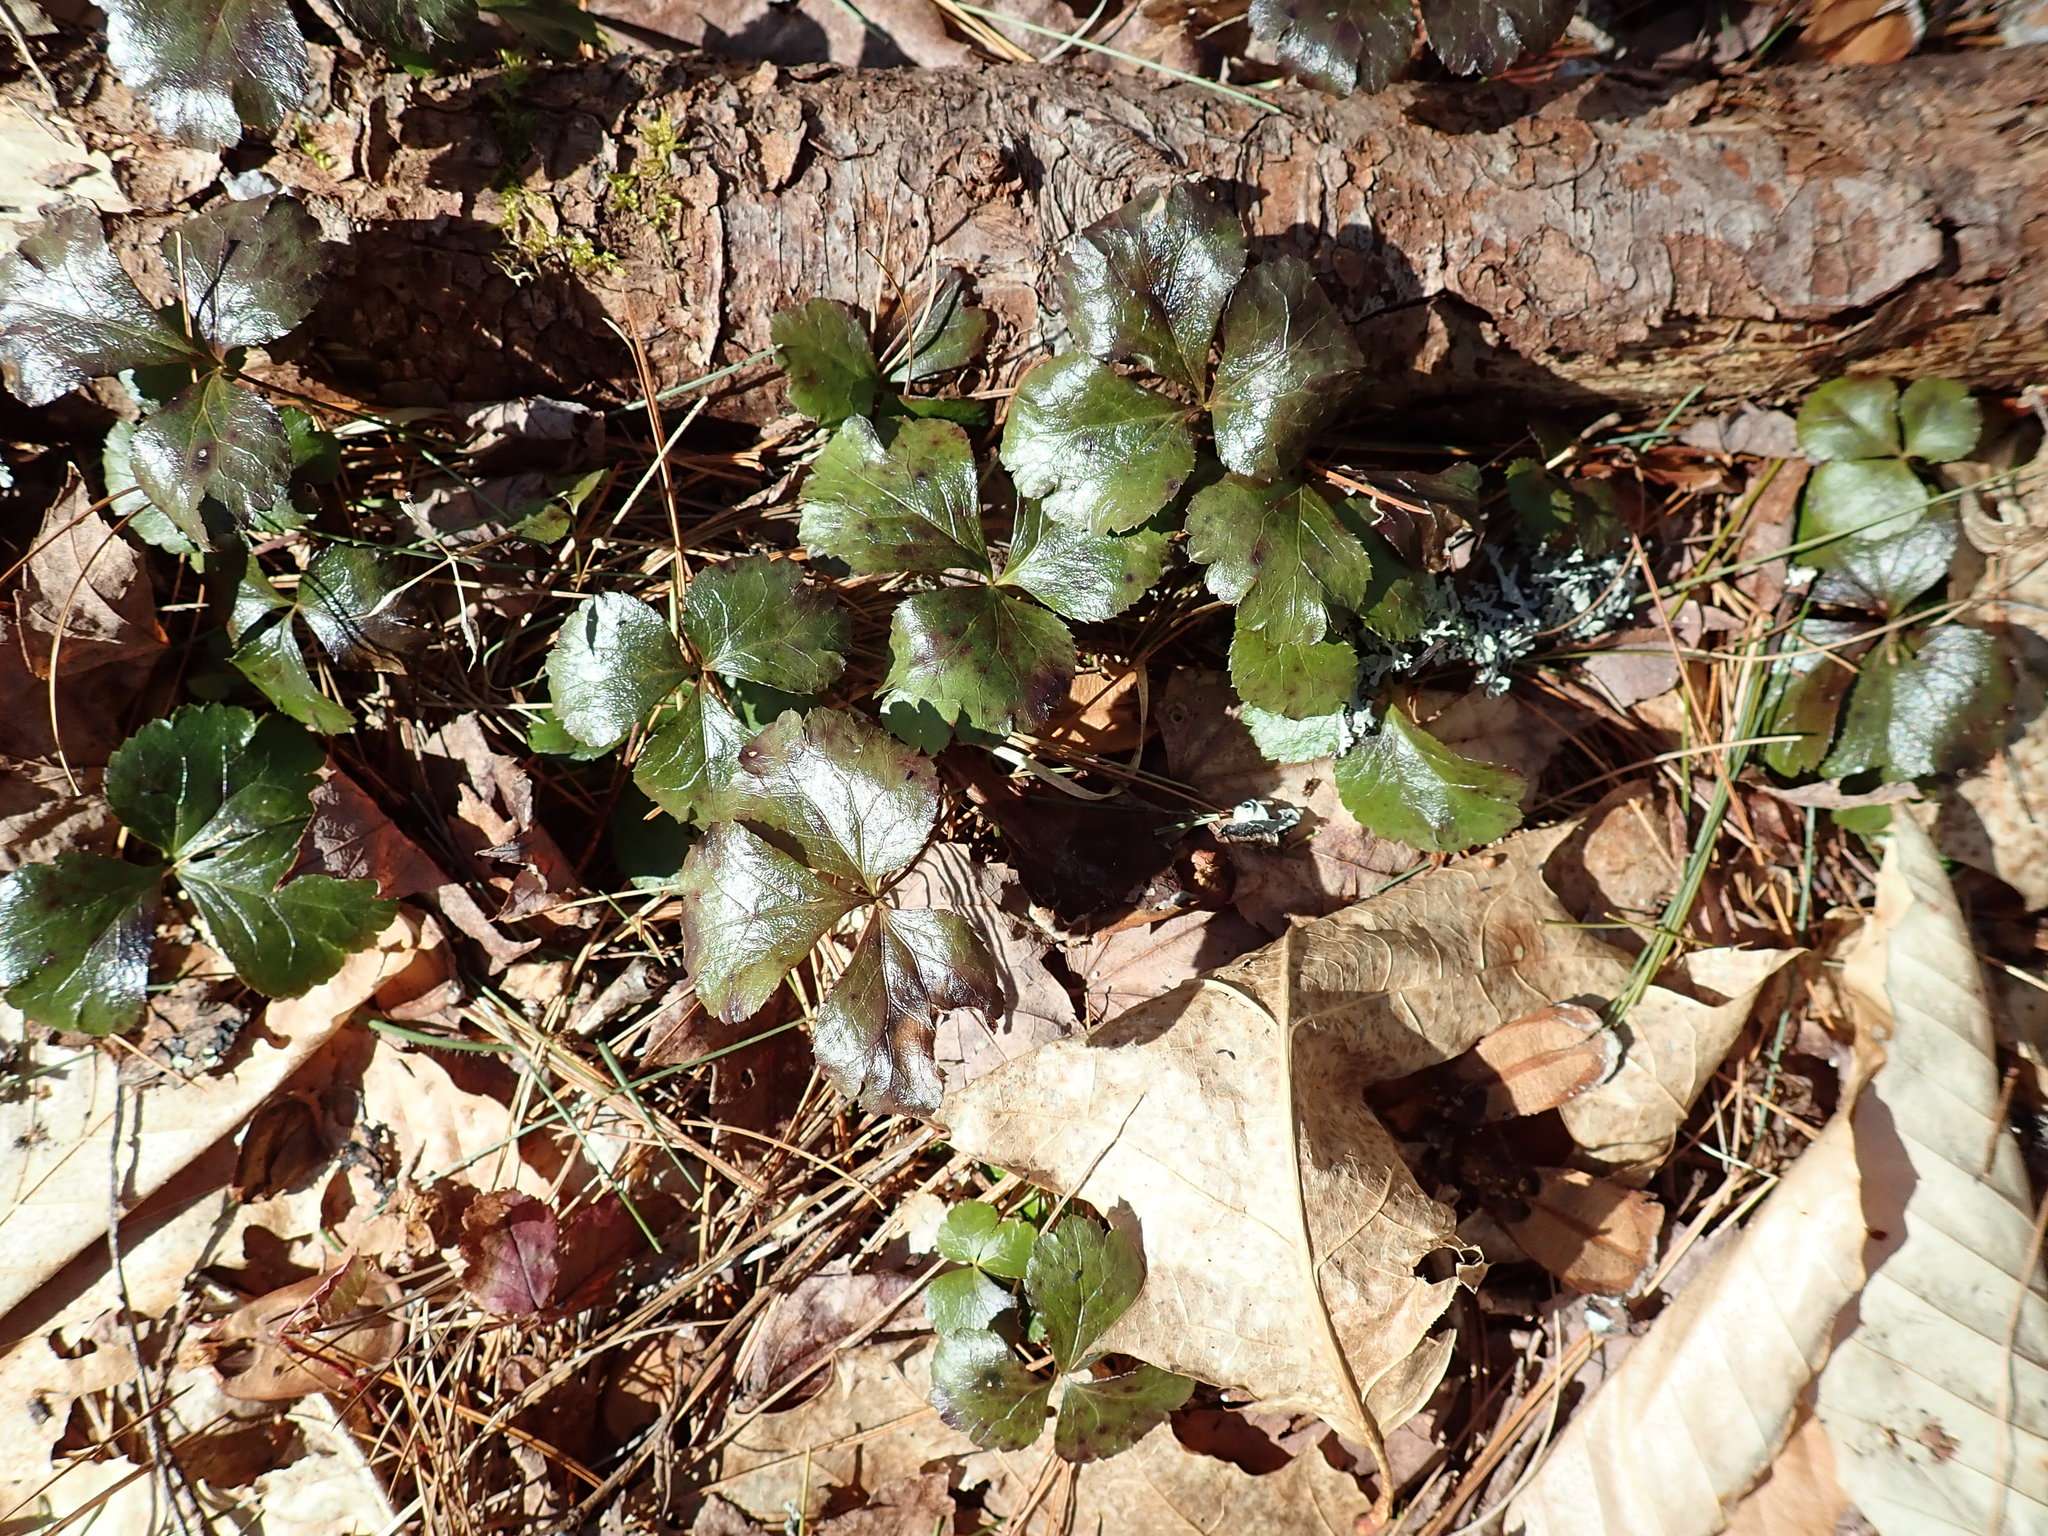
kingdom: Plantae
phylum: Tracheophyta
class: Magnoliopsida
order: Ranunculales
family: Ranunculaceae
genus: Coptis
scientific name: Coptis trifolia
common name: Canker-root
